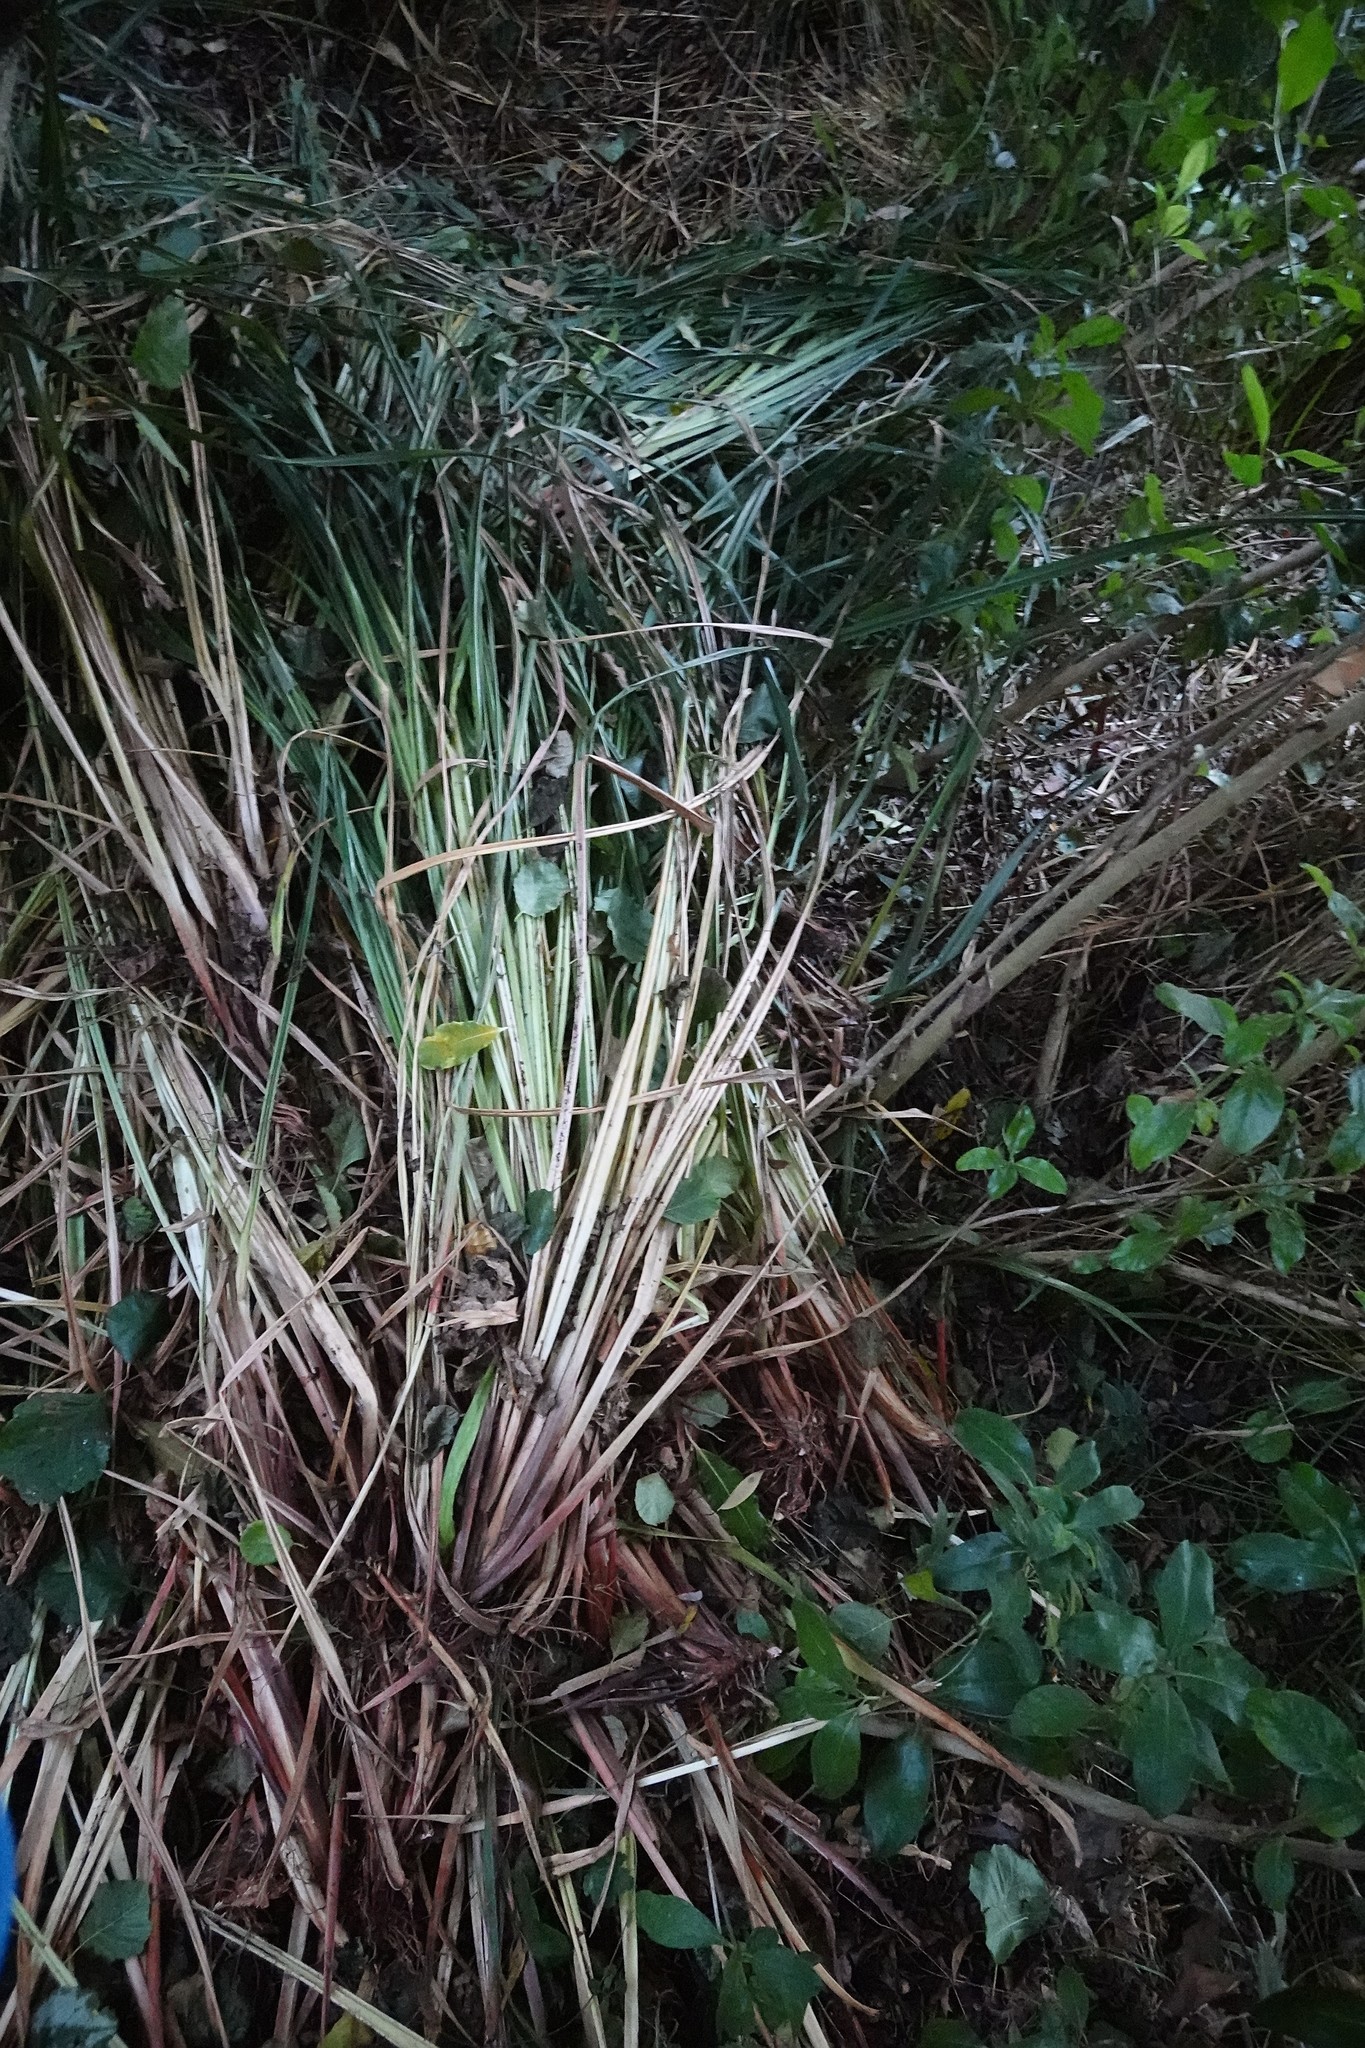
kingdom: Plantae
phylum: Tracheophyta
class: Liliopsida
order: Poales
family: Cyperaceae
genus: Carex
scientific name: Carex pendula
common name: Pendulous sedge
